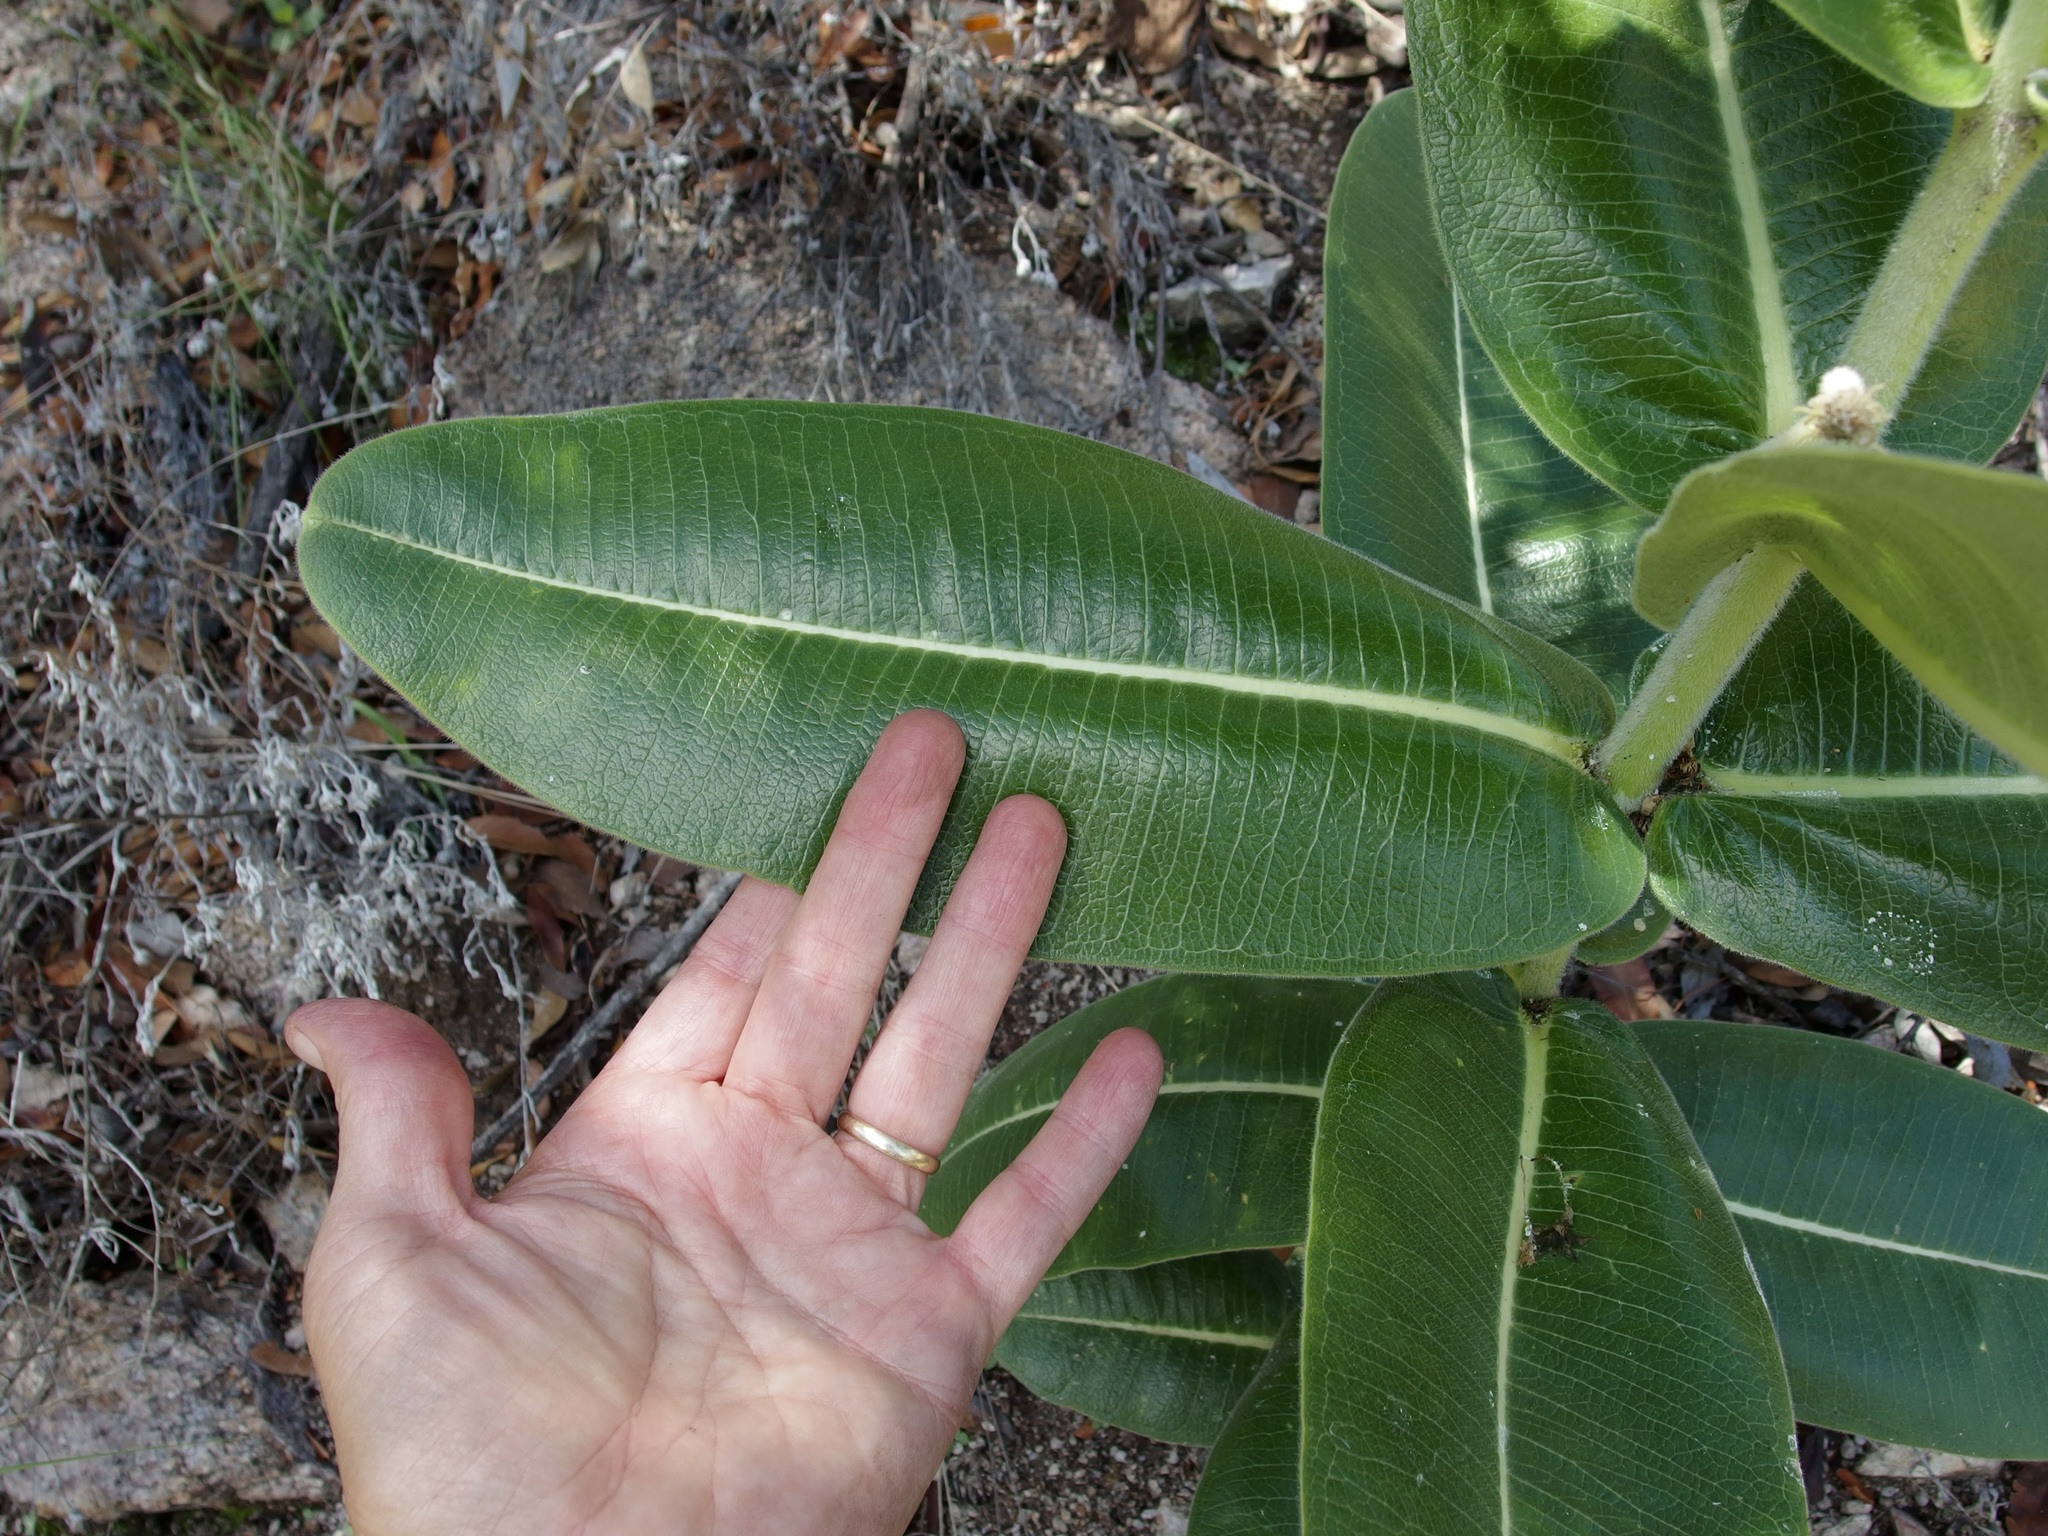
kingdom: Plantae
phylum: Tracheophyta
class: Magnoliopsida
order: Gentianales
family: Apocynaceae
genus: Asclepias
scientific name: Asclepias lemmonii
